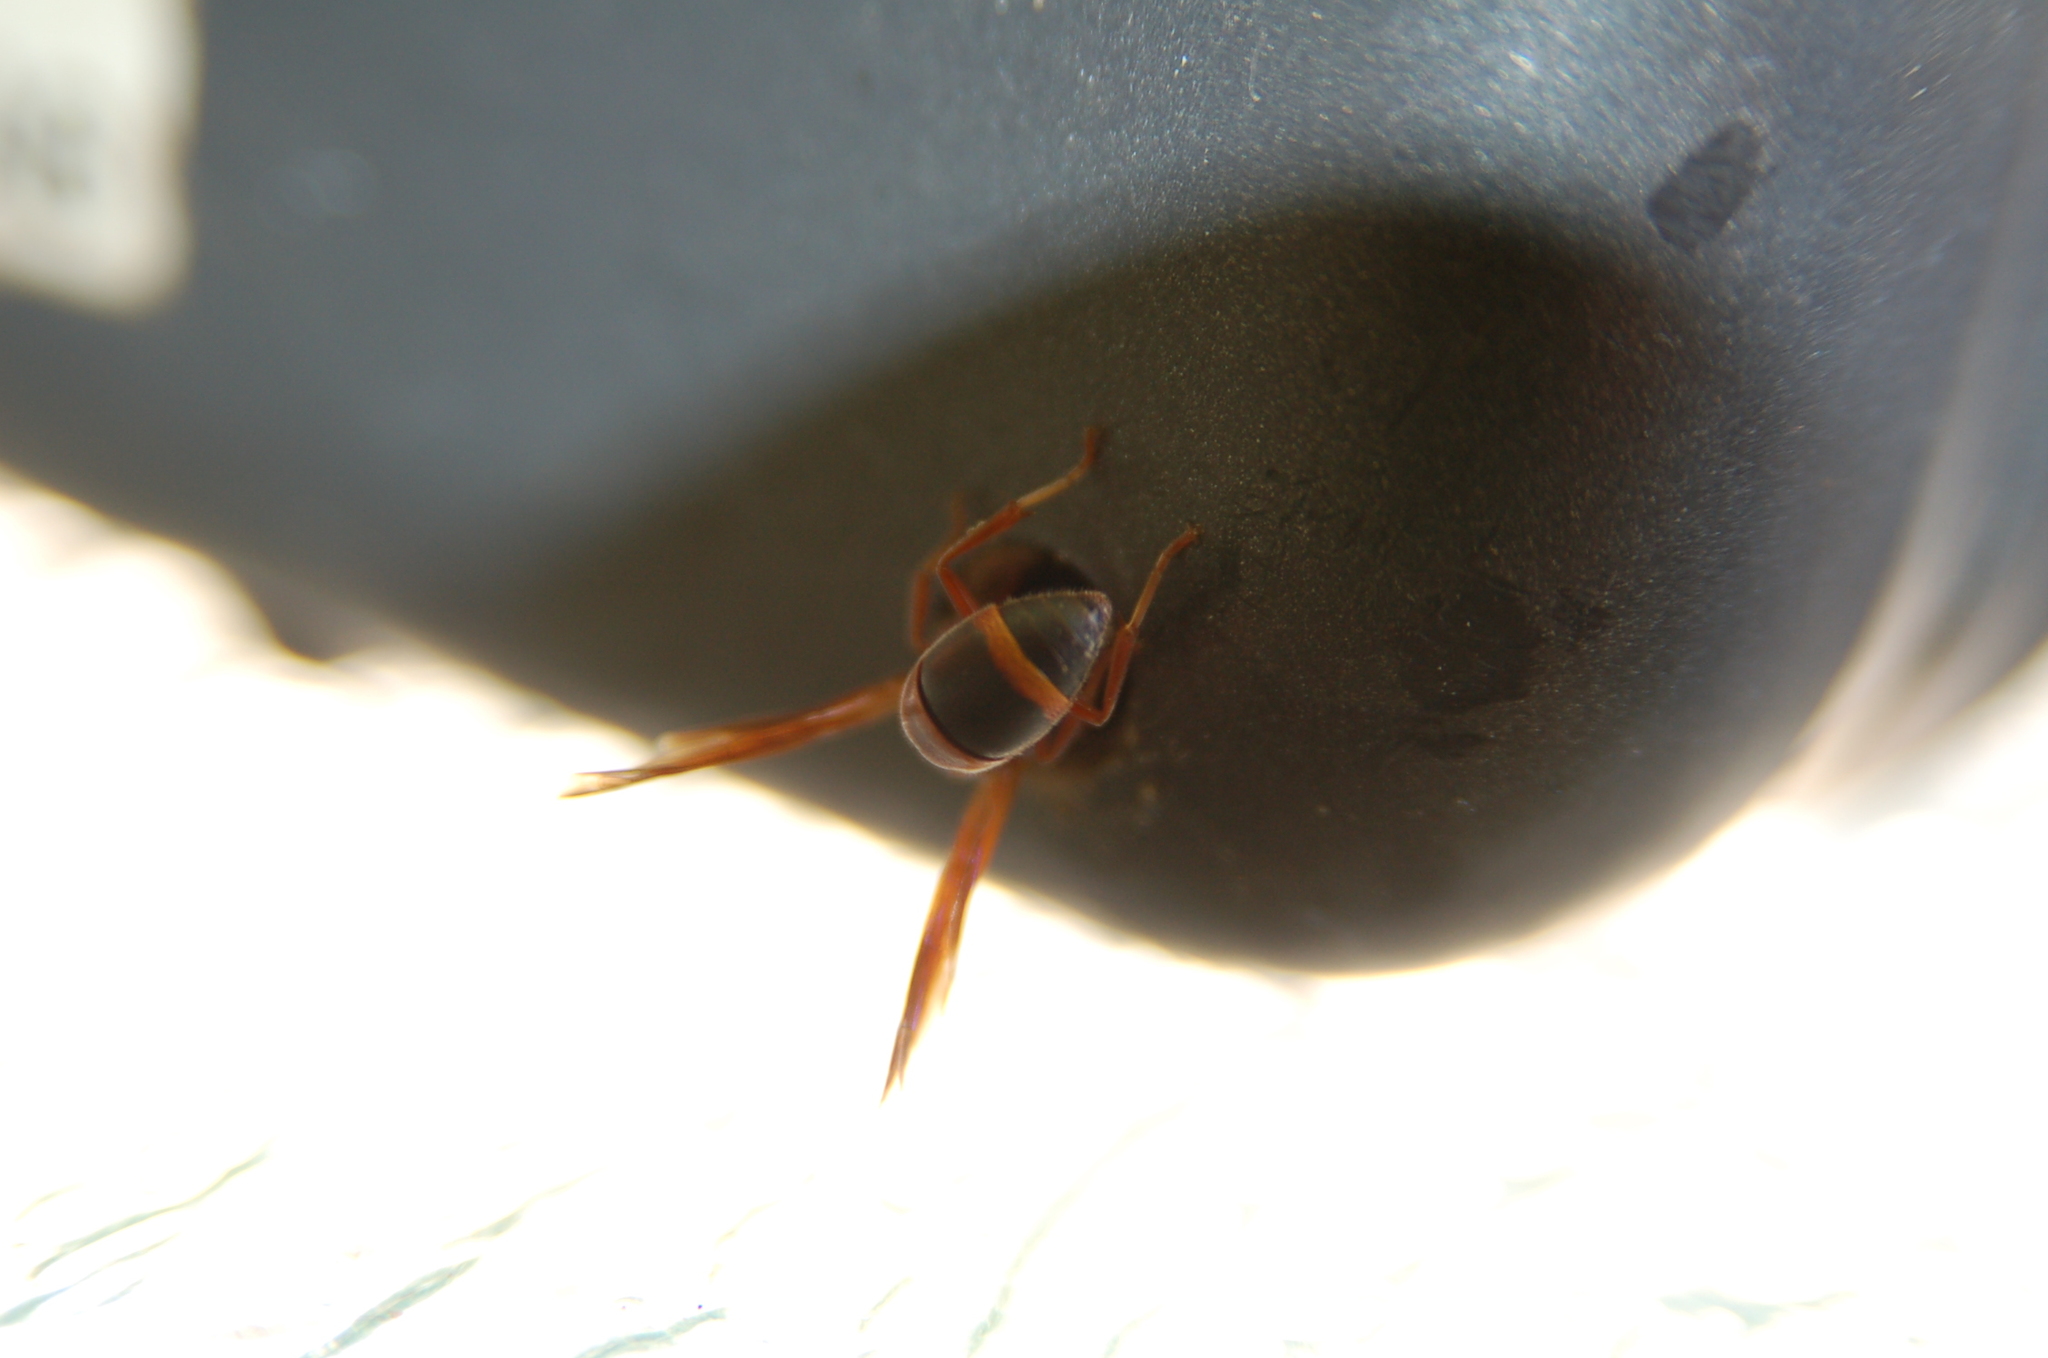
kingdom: Animalia
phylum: Arthropoda
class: Insecta
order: Hymenoptera
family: Eumenidae
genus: Pachodynerus
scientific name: Pachodynerus erynnis
